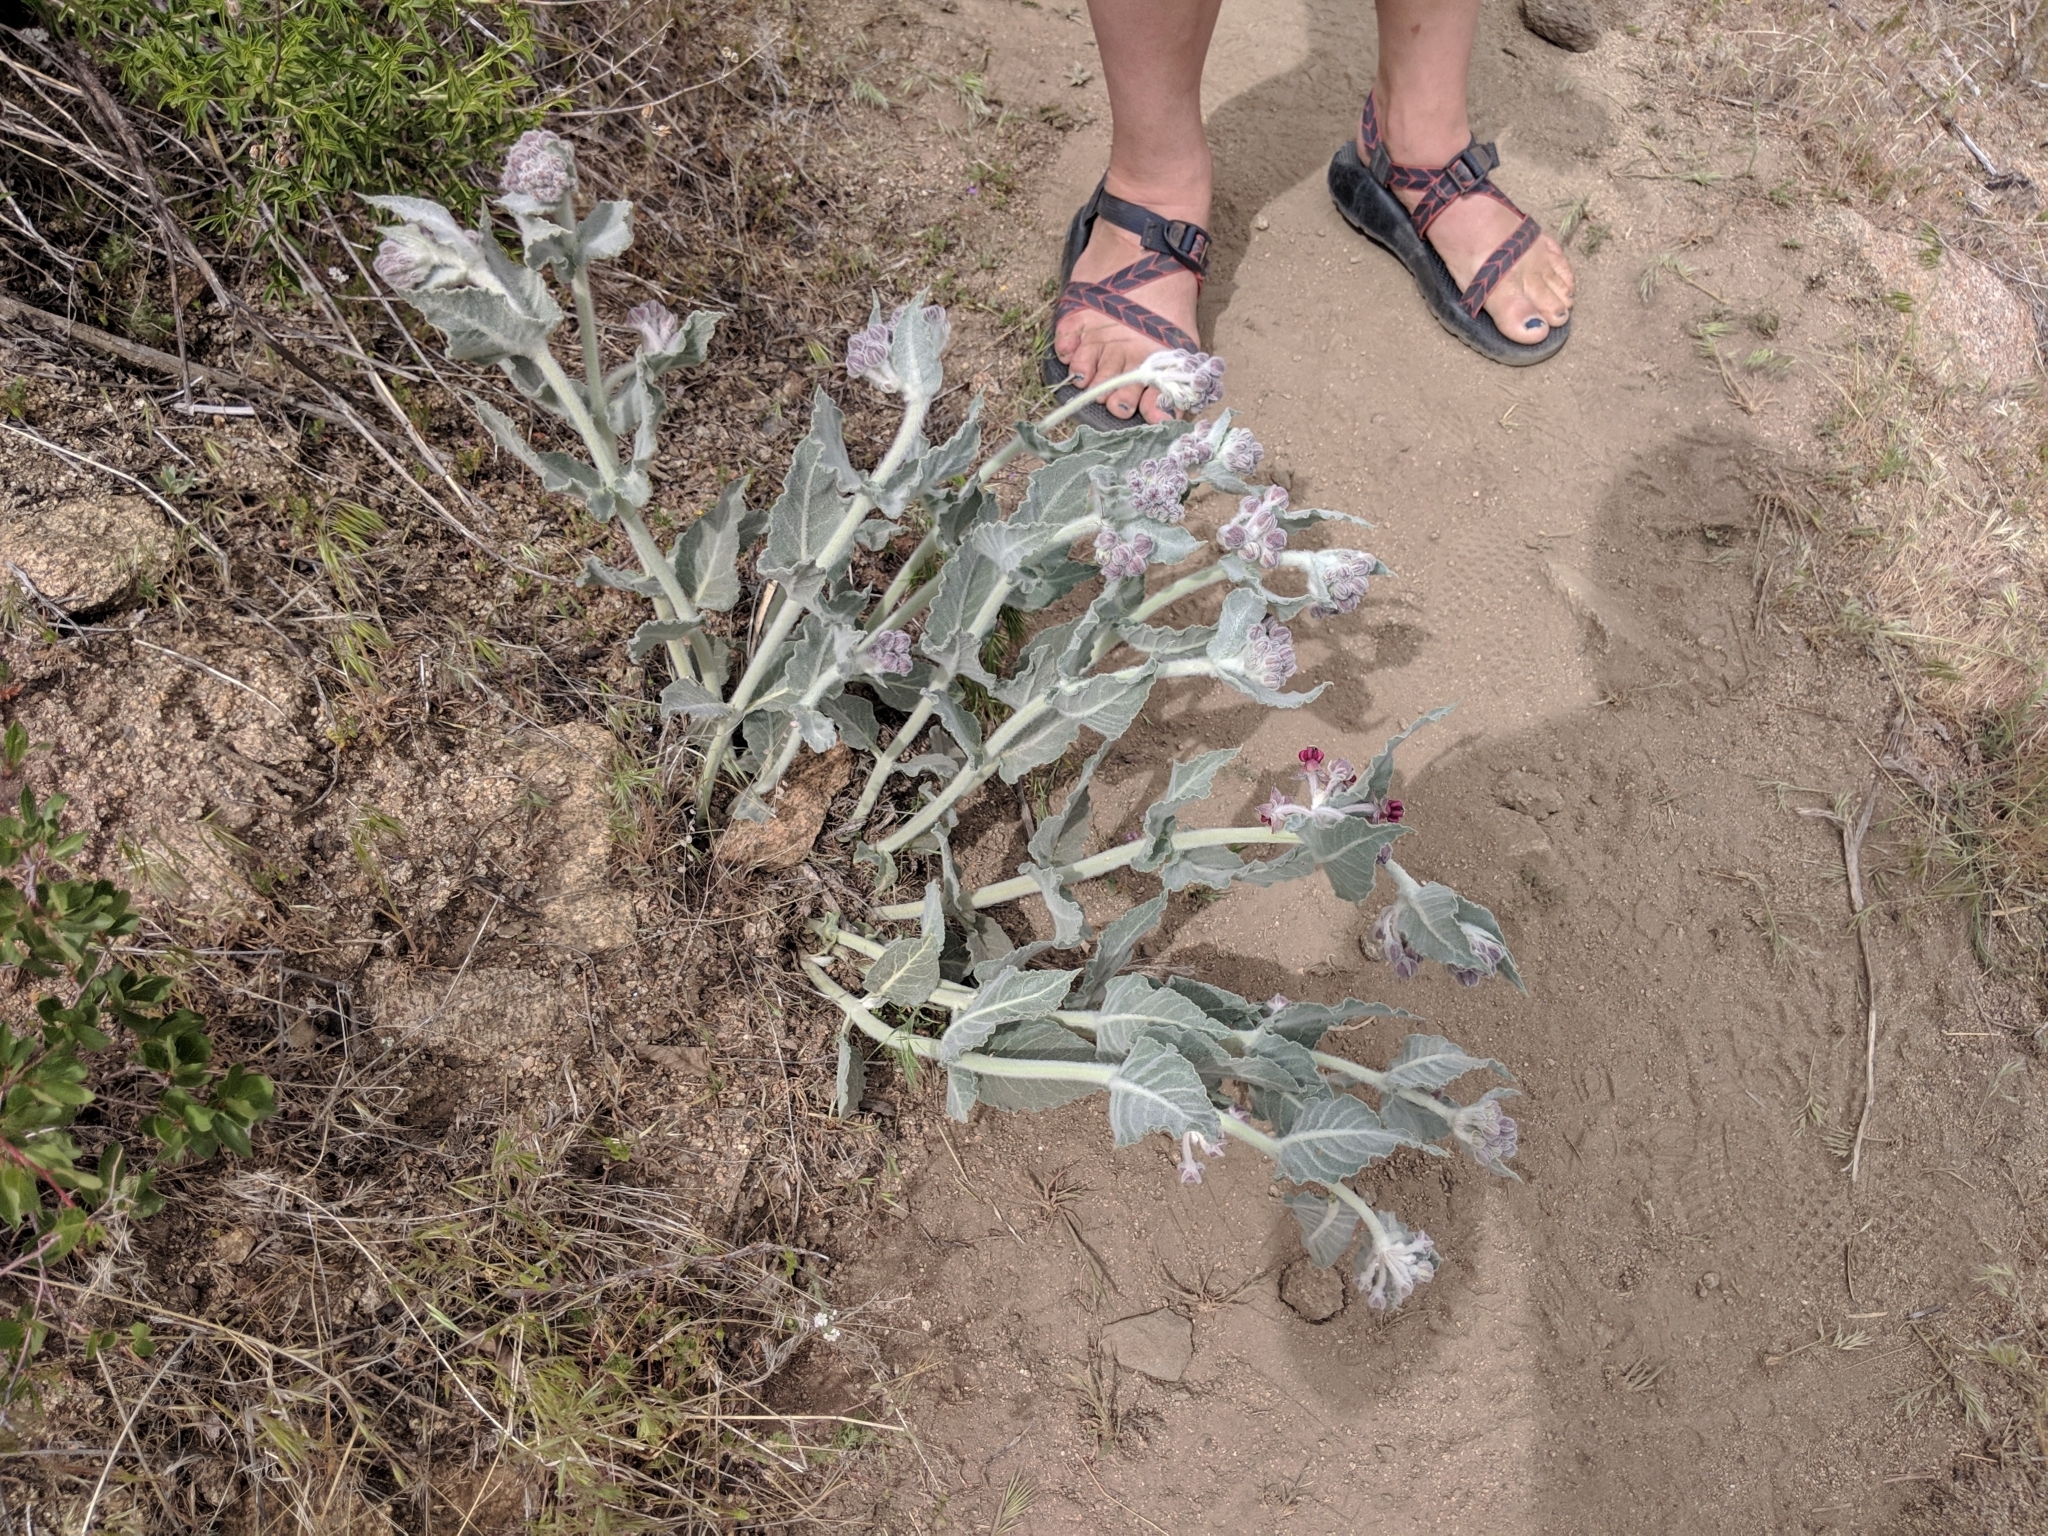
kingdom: Plantae
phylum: Tracheophyta
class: Magnoliopsida
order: Gentianales
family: Apocynaceae
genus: Asclepias
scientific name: Asclepias californica
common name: California milkweed
